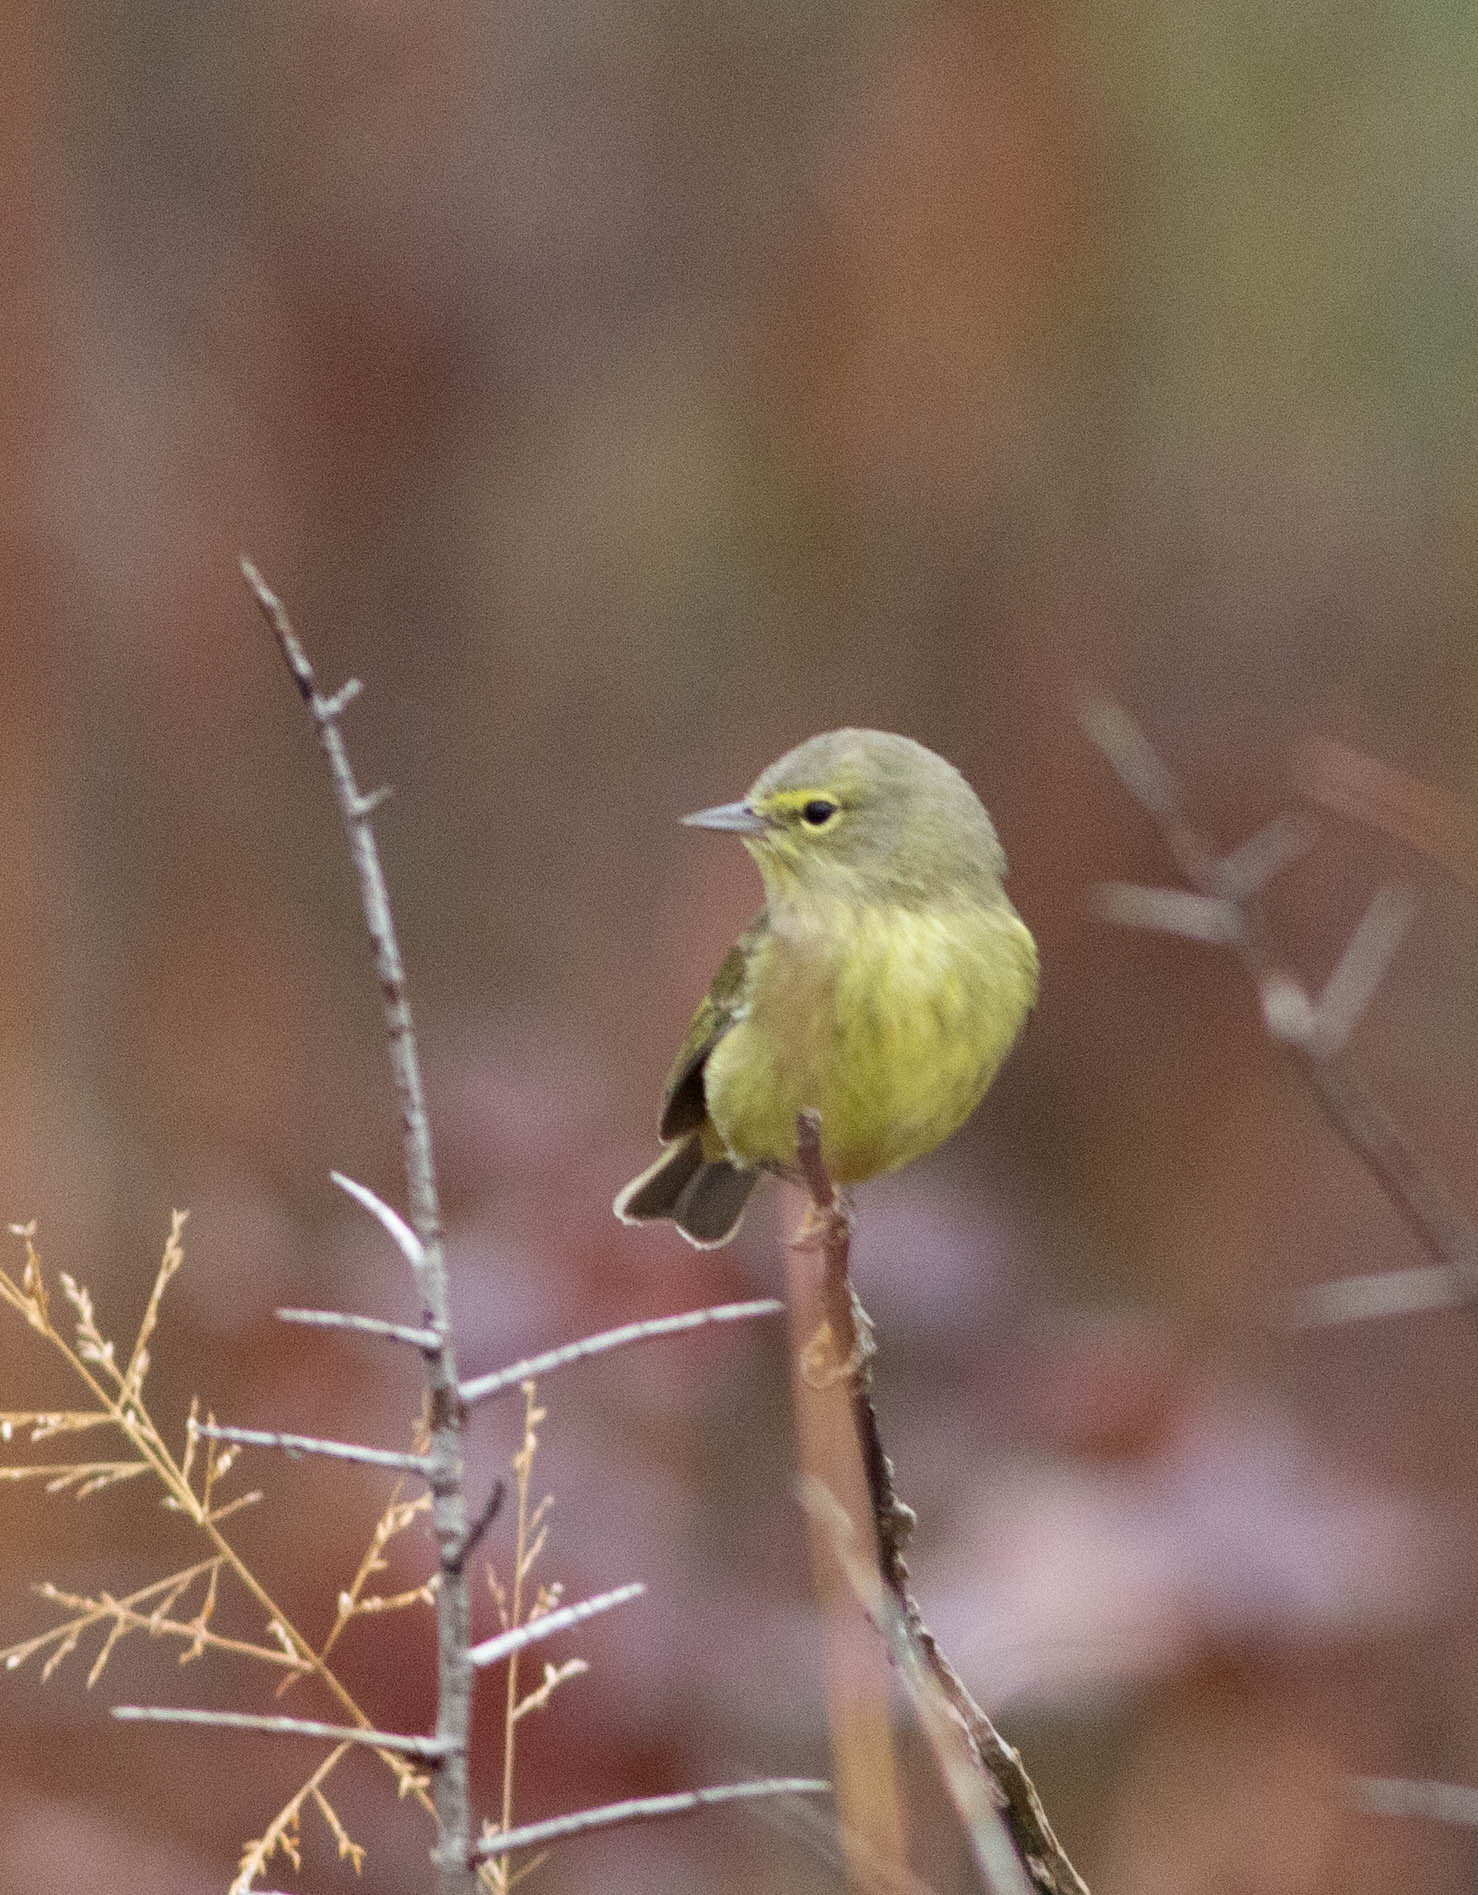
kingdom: Animalia
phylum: Chordata
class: Aves
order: Passeriformes
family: Parulidae
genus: Leiothlypis
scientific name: Leiothlypis celata
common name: Orange-crowned warbler
